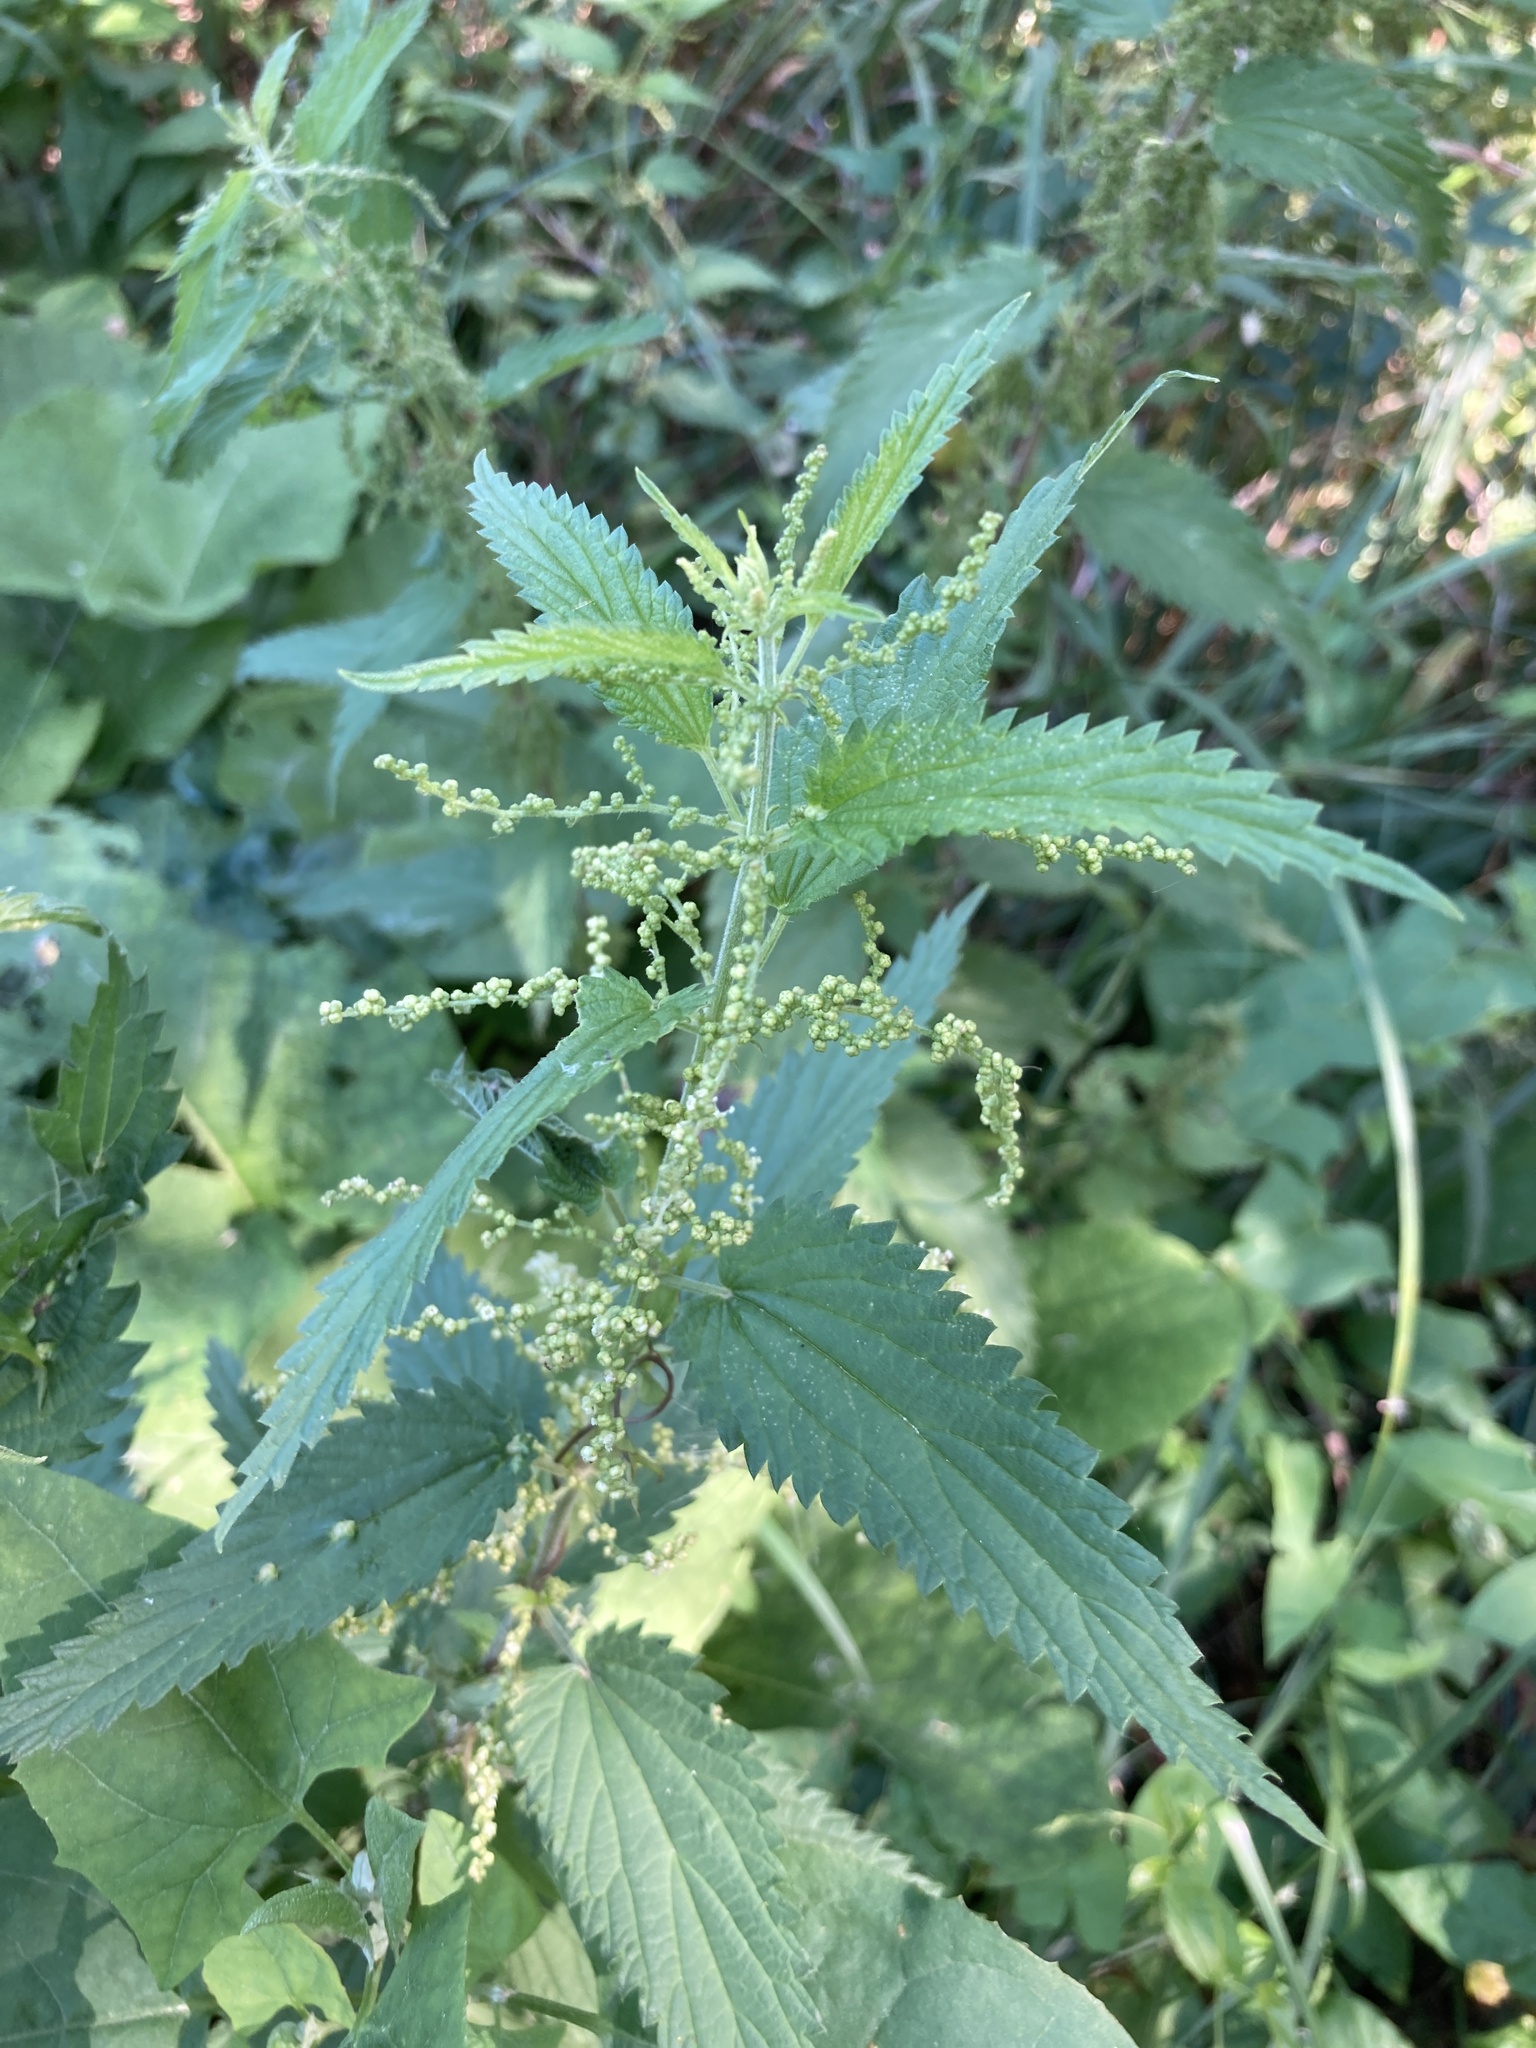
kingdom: Plantae
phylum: Tracheophyta
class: Magnoliopsida
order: Rosales
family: Urticaceae
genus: Urtica
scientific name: Urtica dioica
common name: Common nettle
